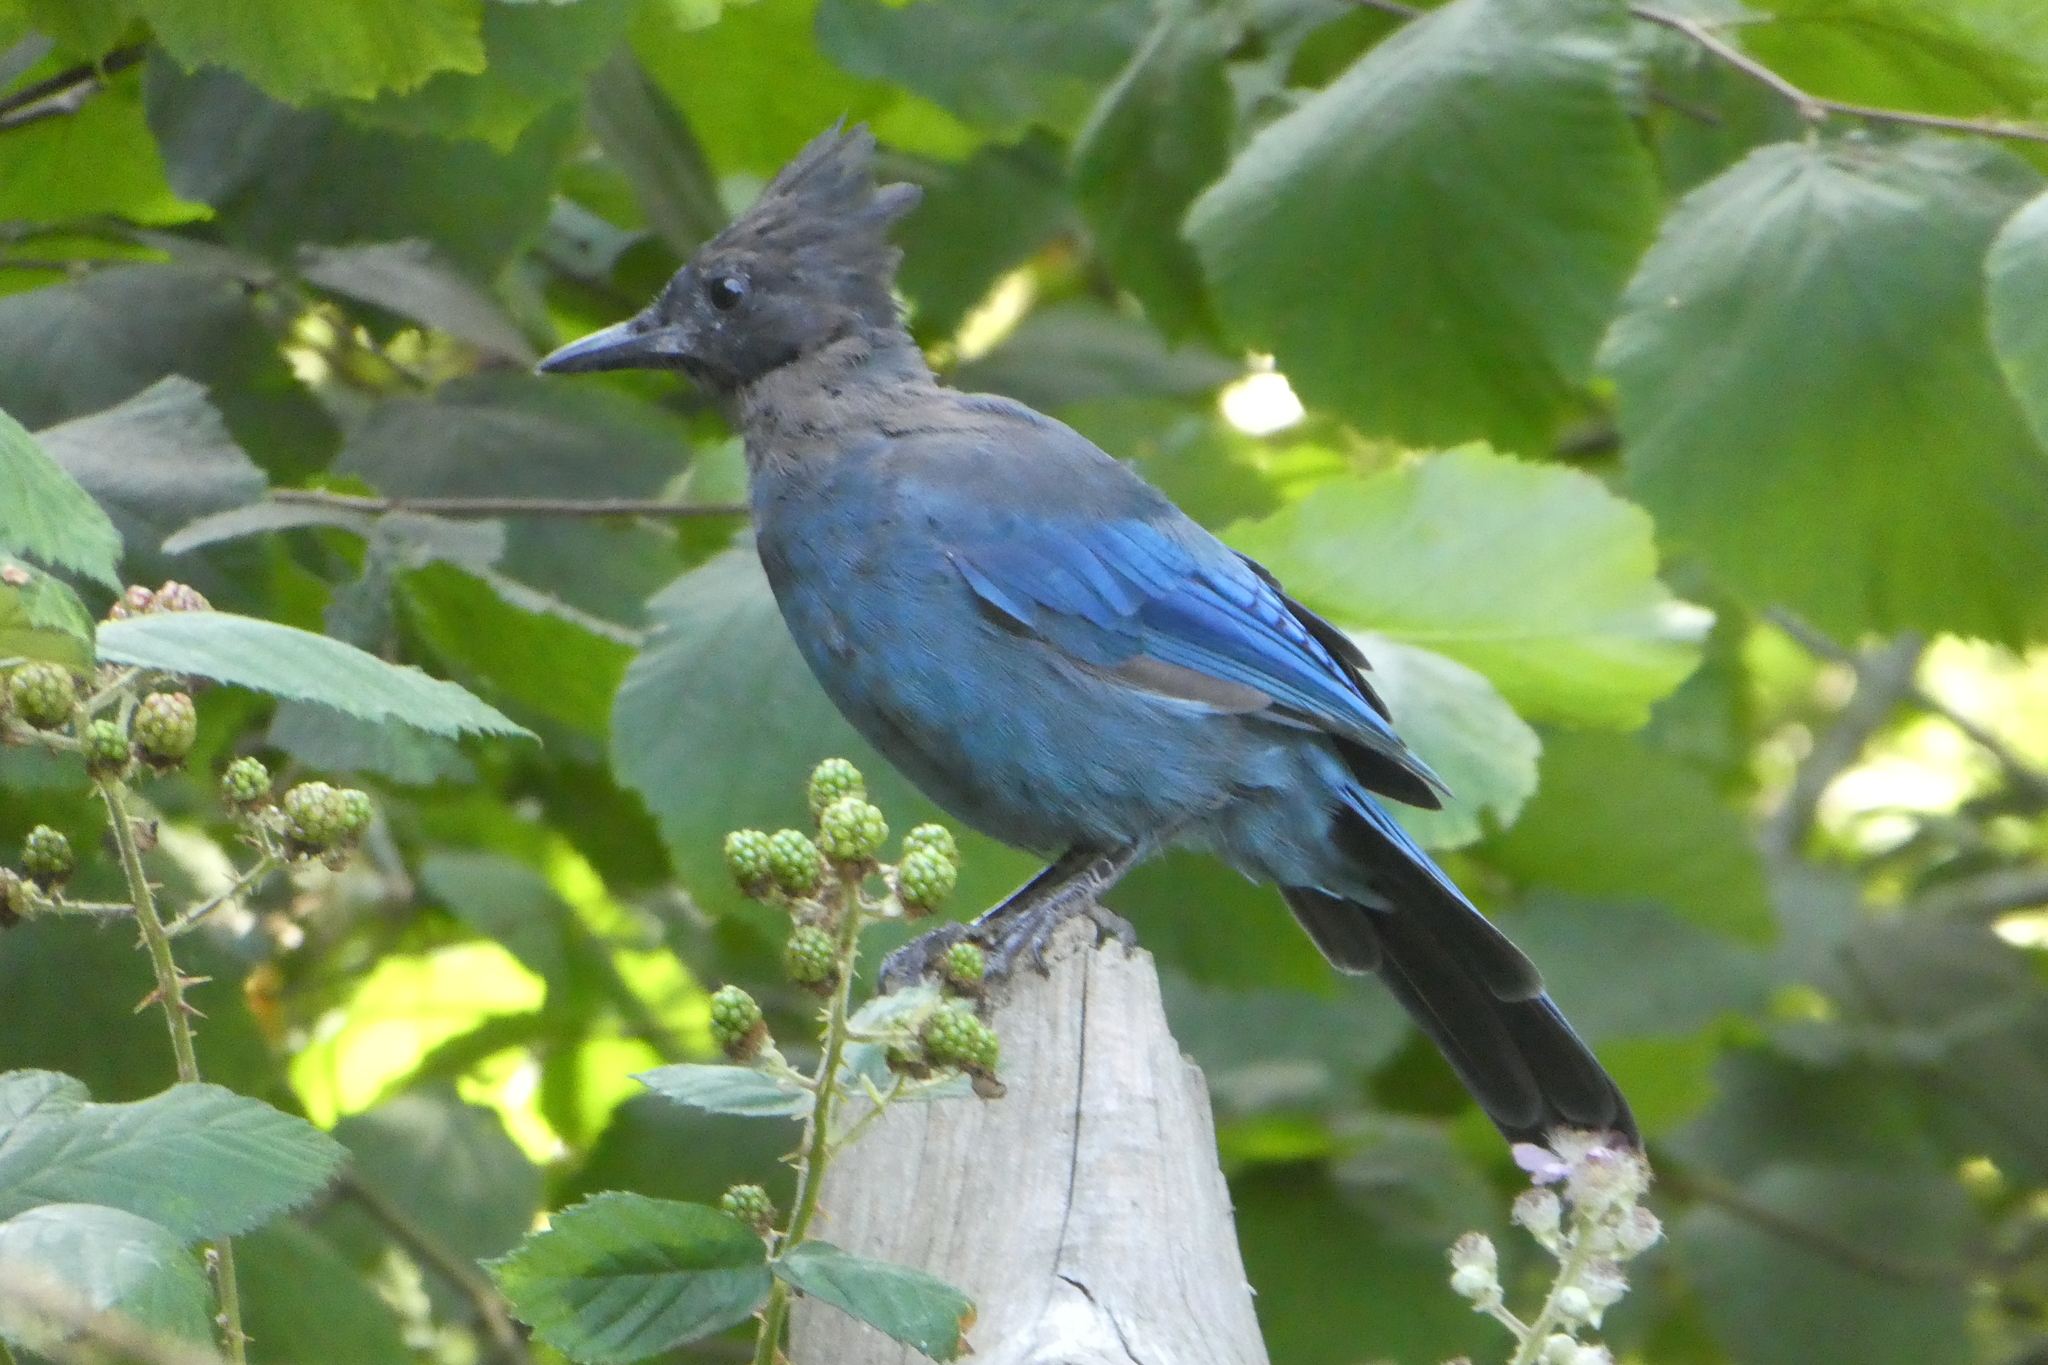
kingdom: Animalia
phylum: Chordata
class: Aves
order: Passeriformes
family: Corvidae
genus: Cyanocitta
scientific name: Cyanocitta stelleri
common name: Steller's jay
